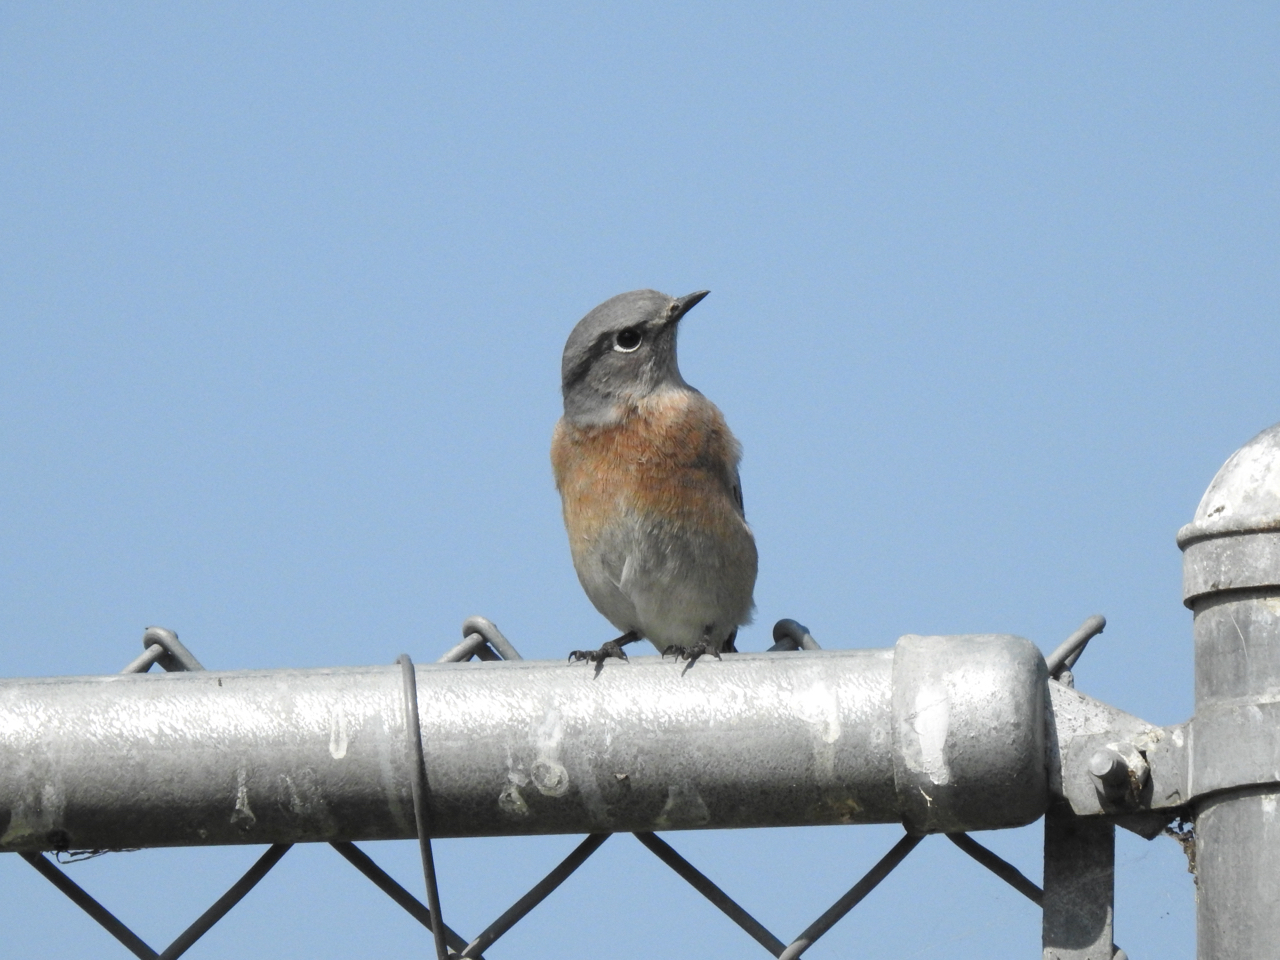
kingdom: Animalia
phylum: Chordata
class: Aves
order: Passeriformes
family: Turdidae
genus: Sialia
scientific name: Sialia mexicana
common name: Western bluebird
